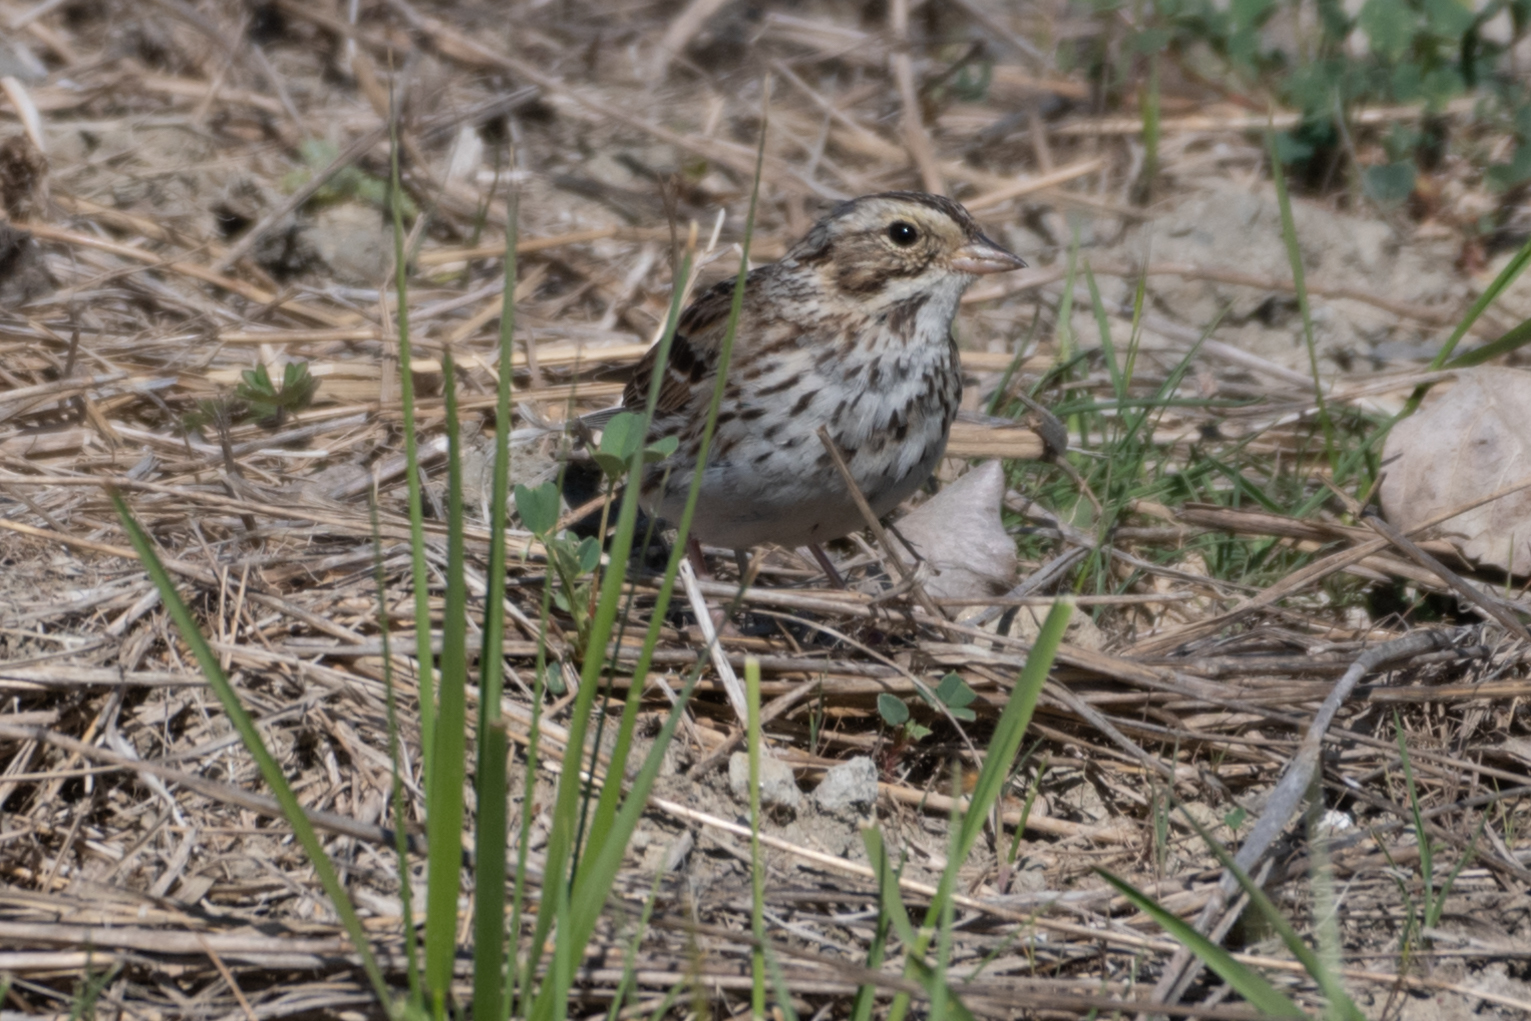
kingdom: Animalia
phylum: Chordata
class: Aves
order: Passeriformes
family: Passerellidae
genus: Passerculus
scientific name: Passerculus sandwichensis
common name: Savannah sparrow
